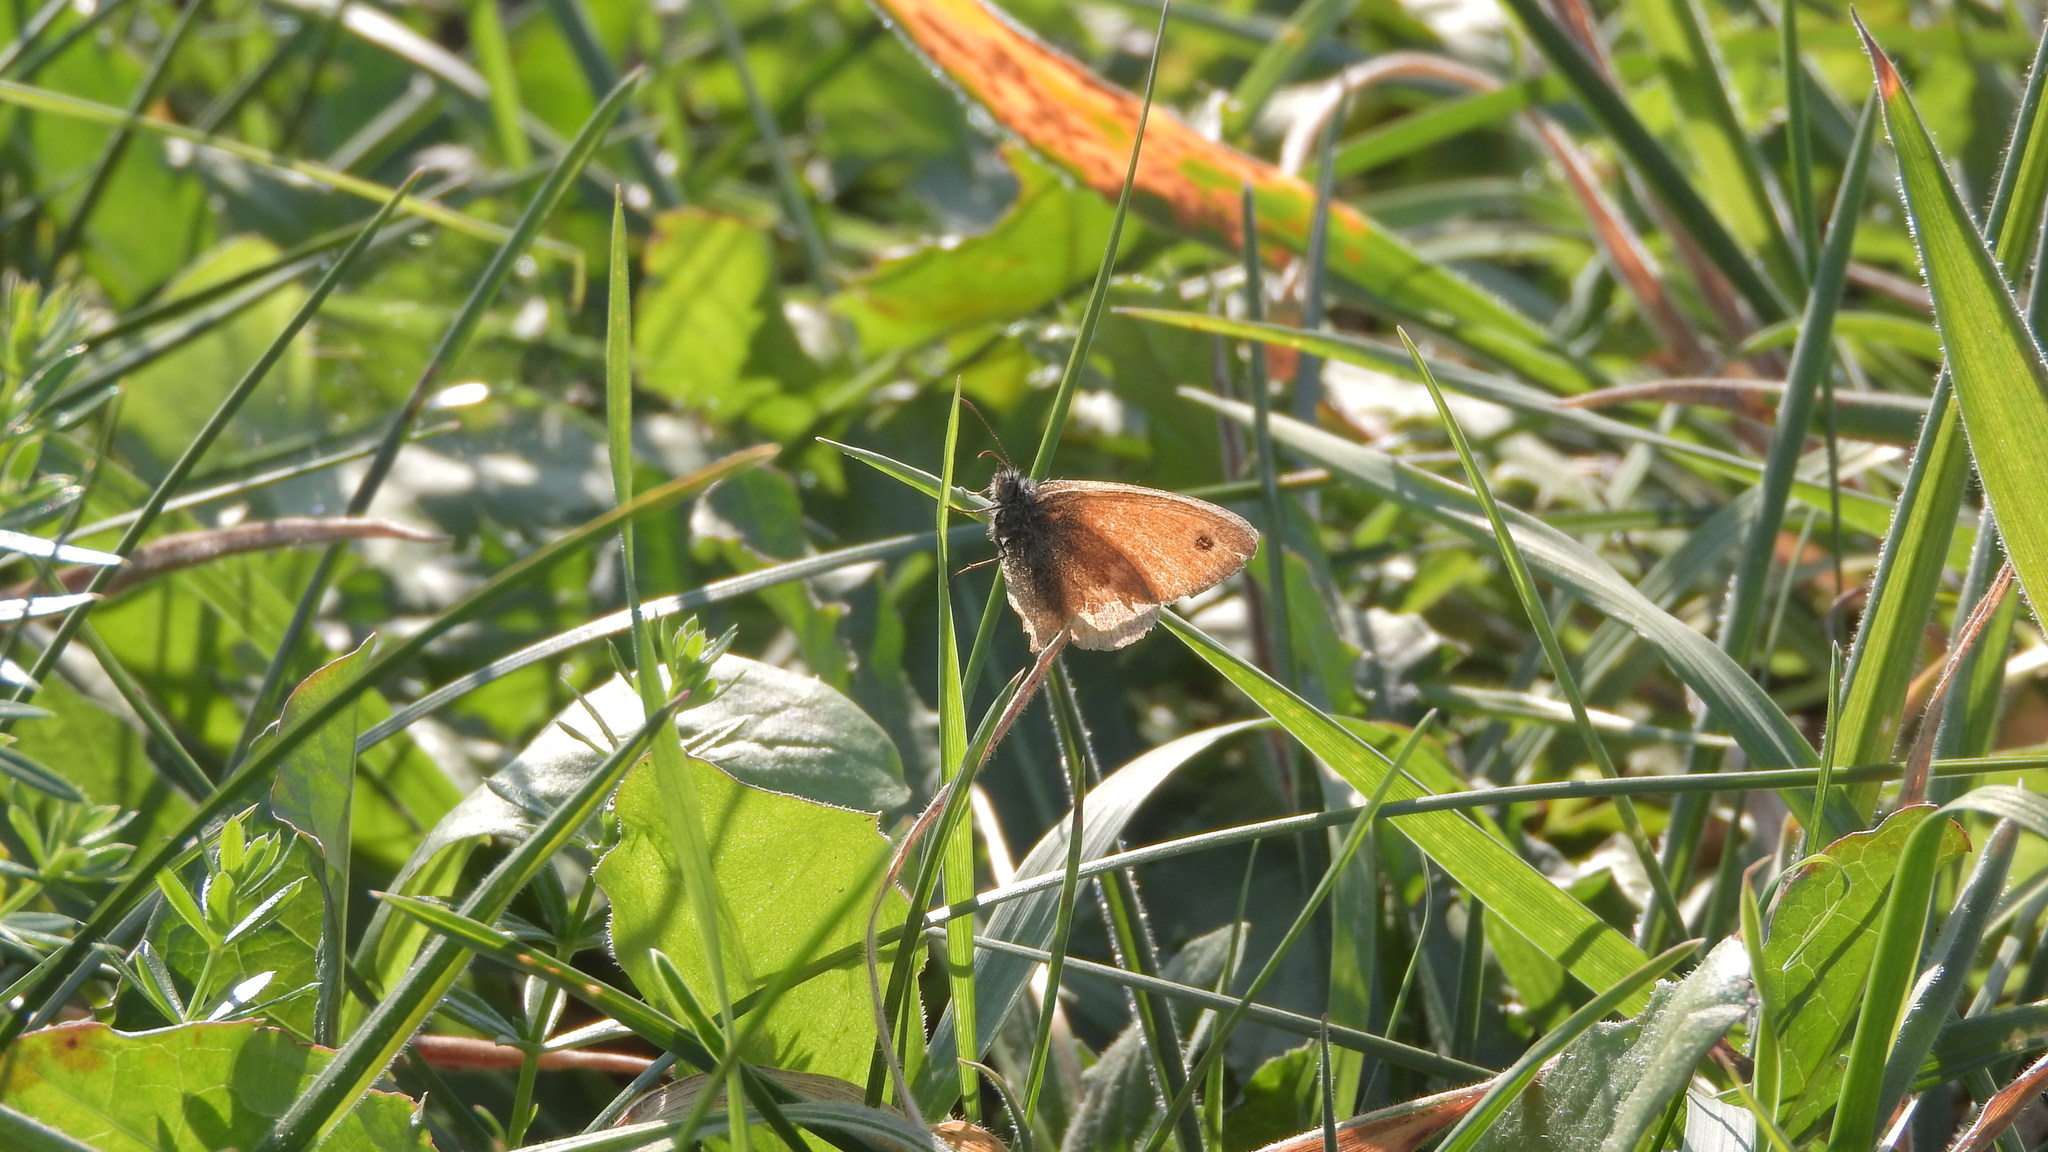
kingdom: Animalia
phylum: Arthropoda
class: Insecta
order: Lepidoptera
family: Nymphalidae
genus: Coenonympha
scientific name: Coenonympha pamphilus
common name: Small heath
